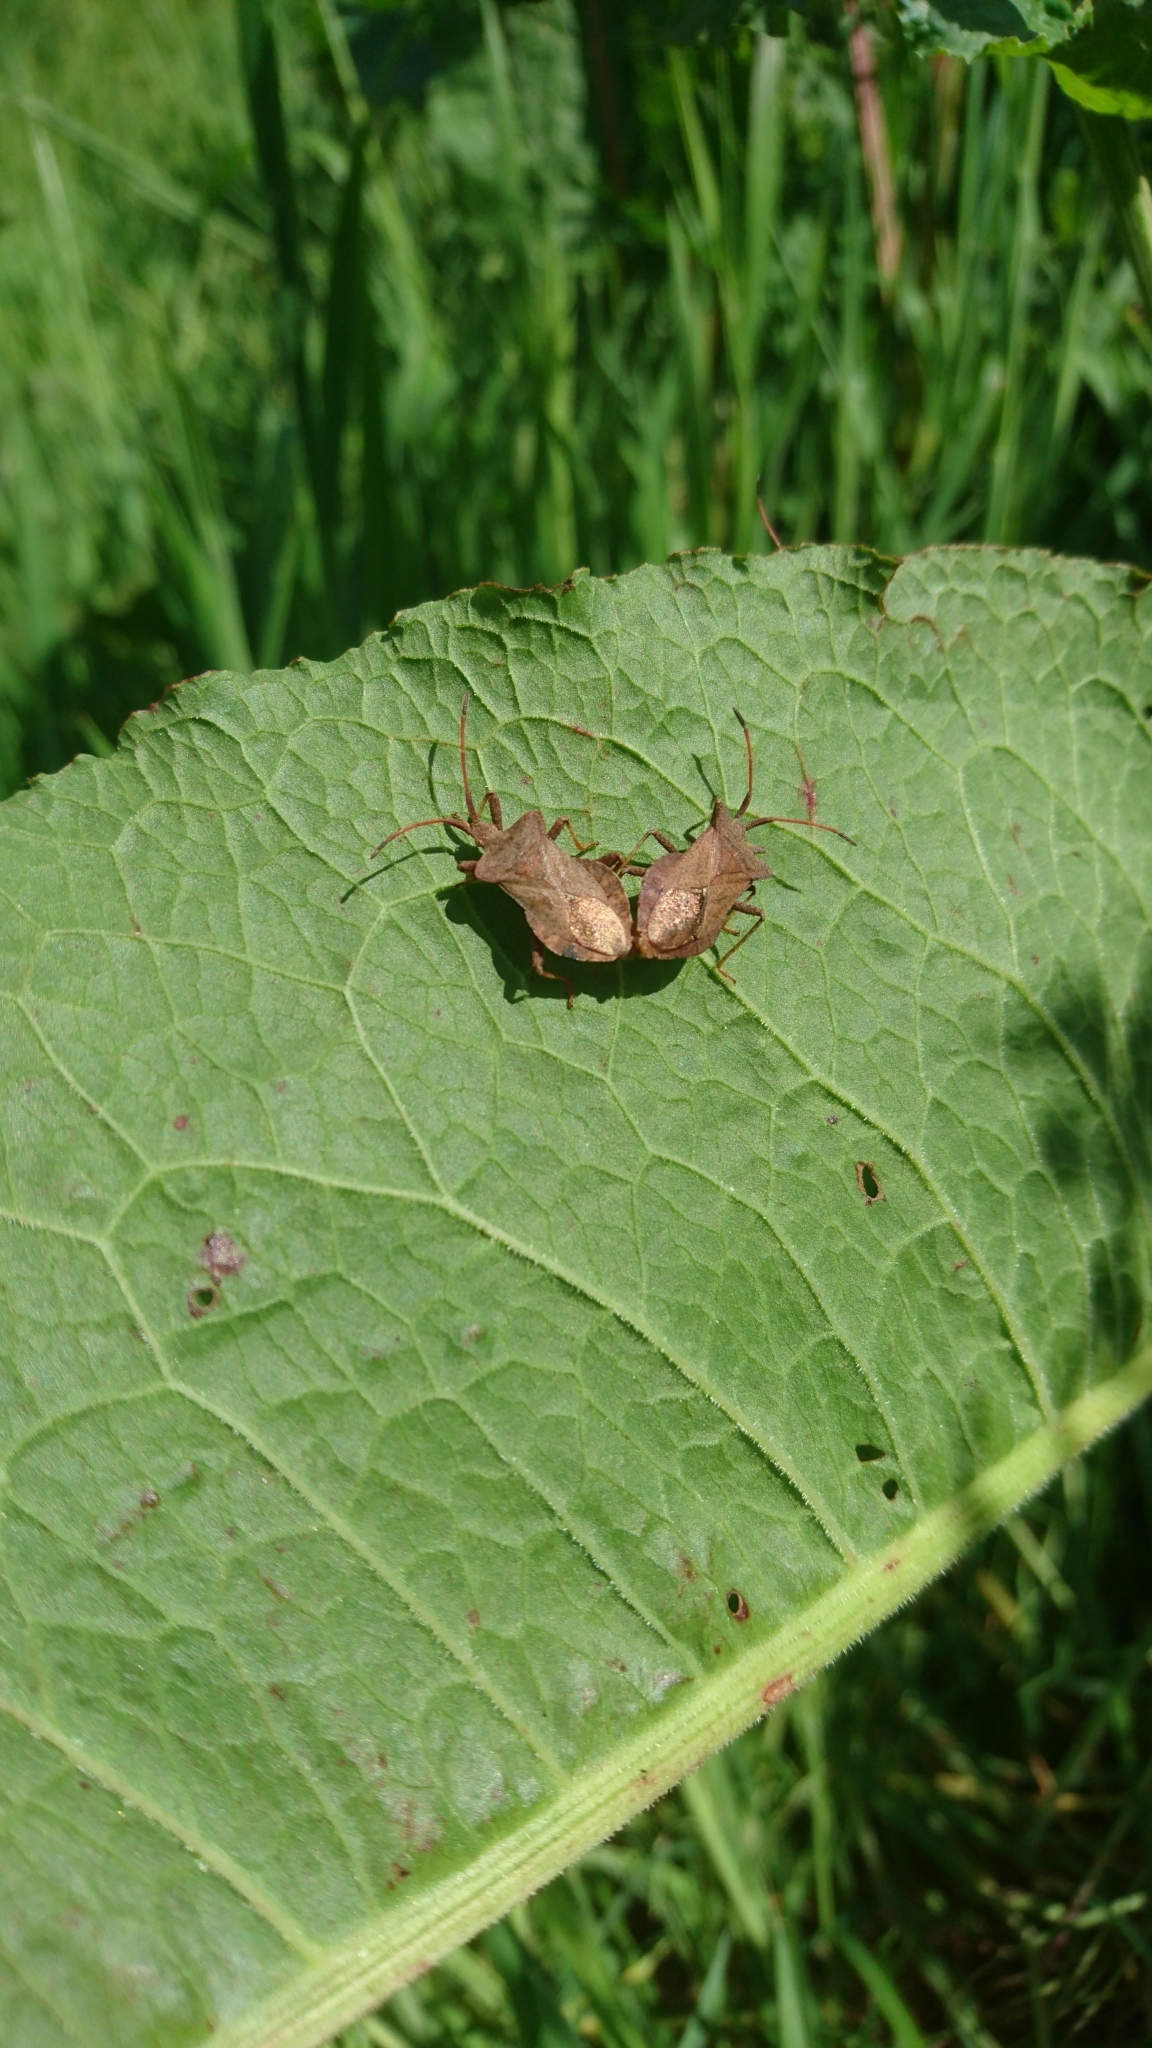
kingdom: Animalia
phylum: Arthropoda
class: Insecta
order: Hemiptera
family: Coreidae
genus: Coreus
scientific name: Coreus marginatus
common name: Dock bug
